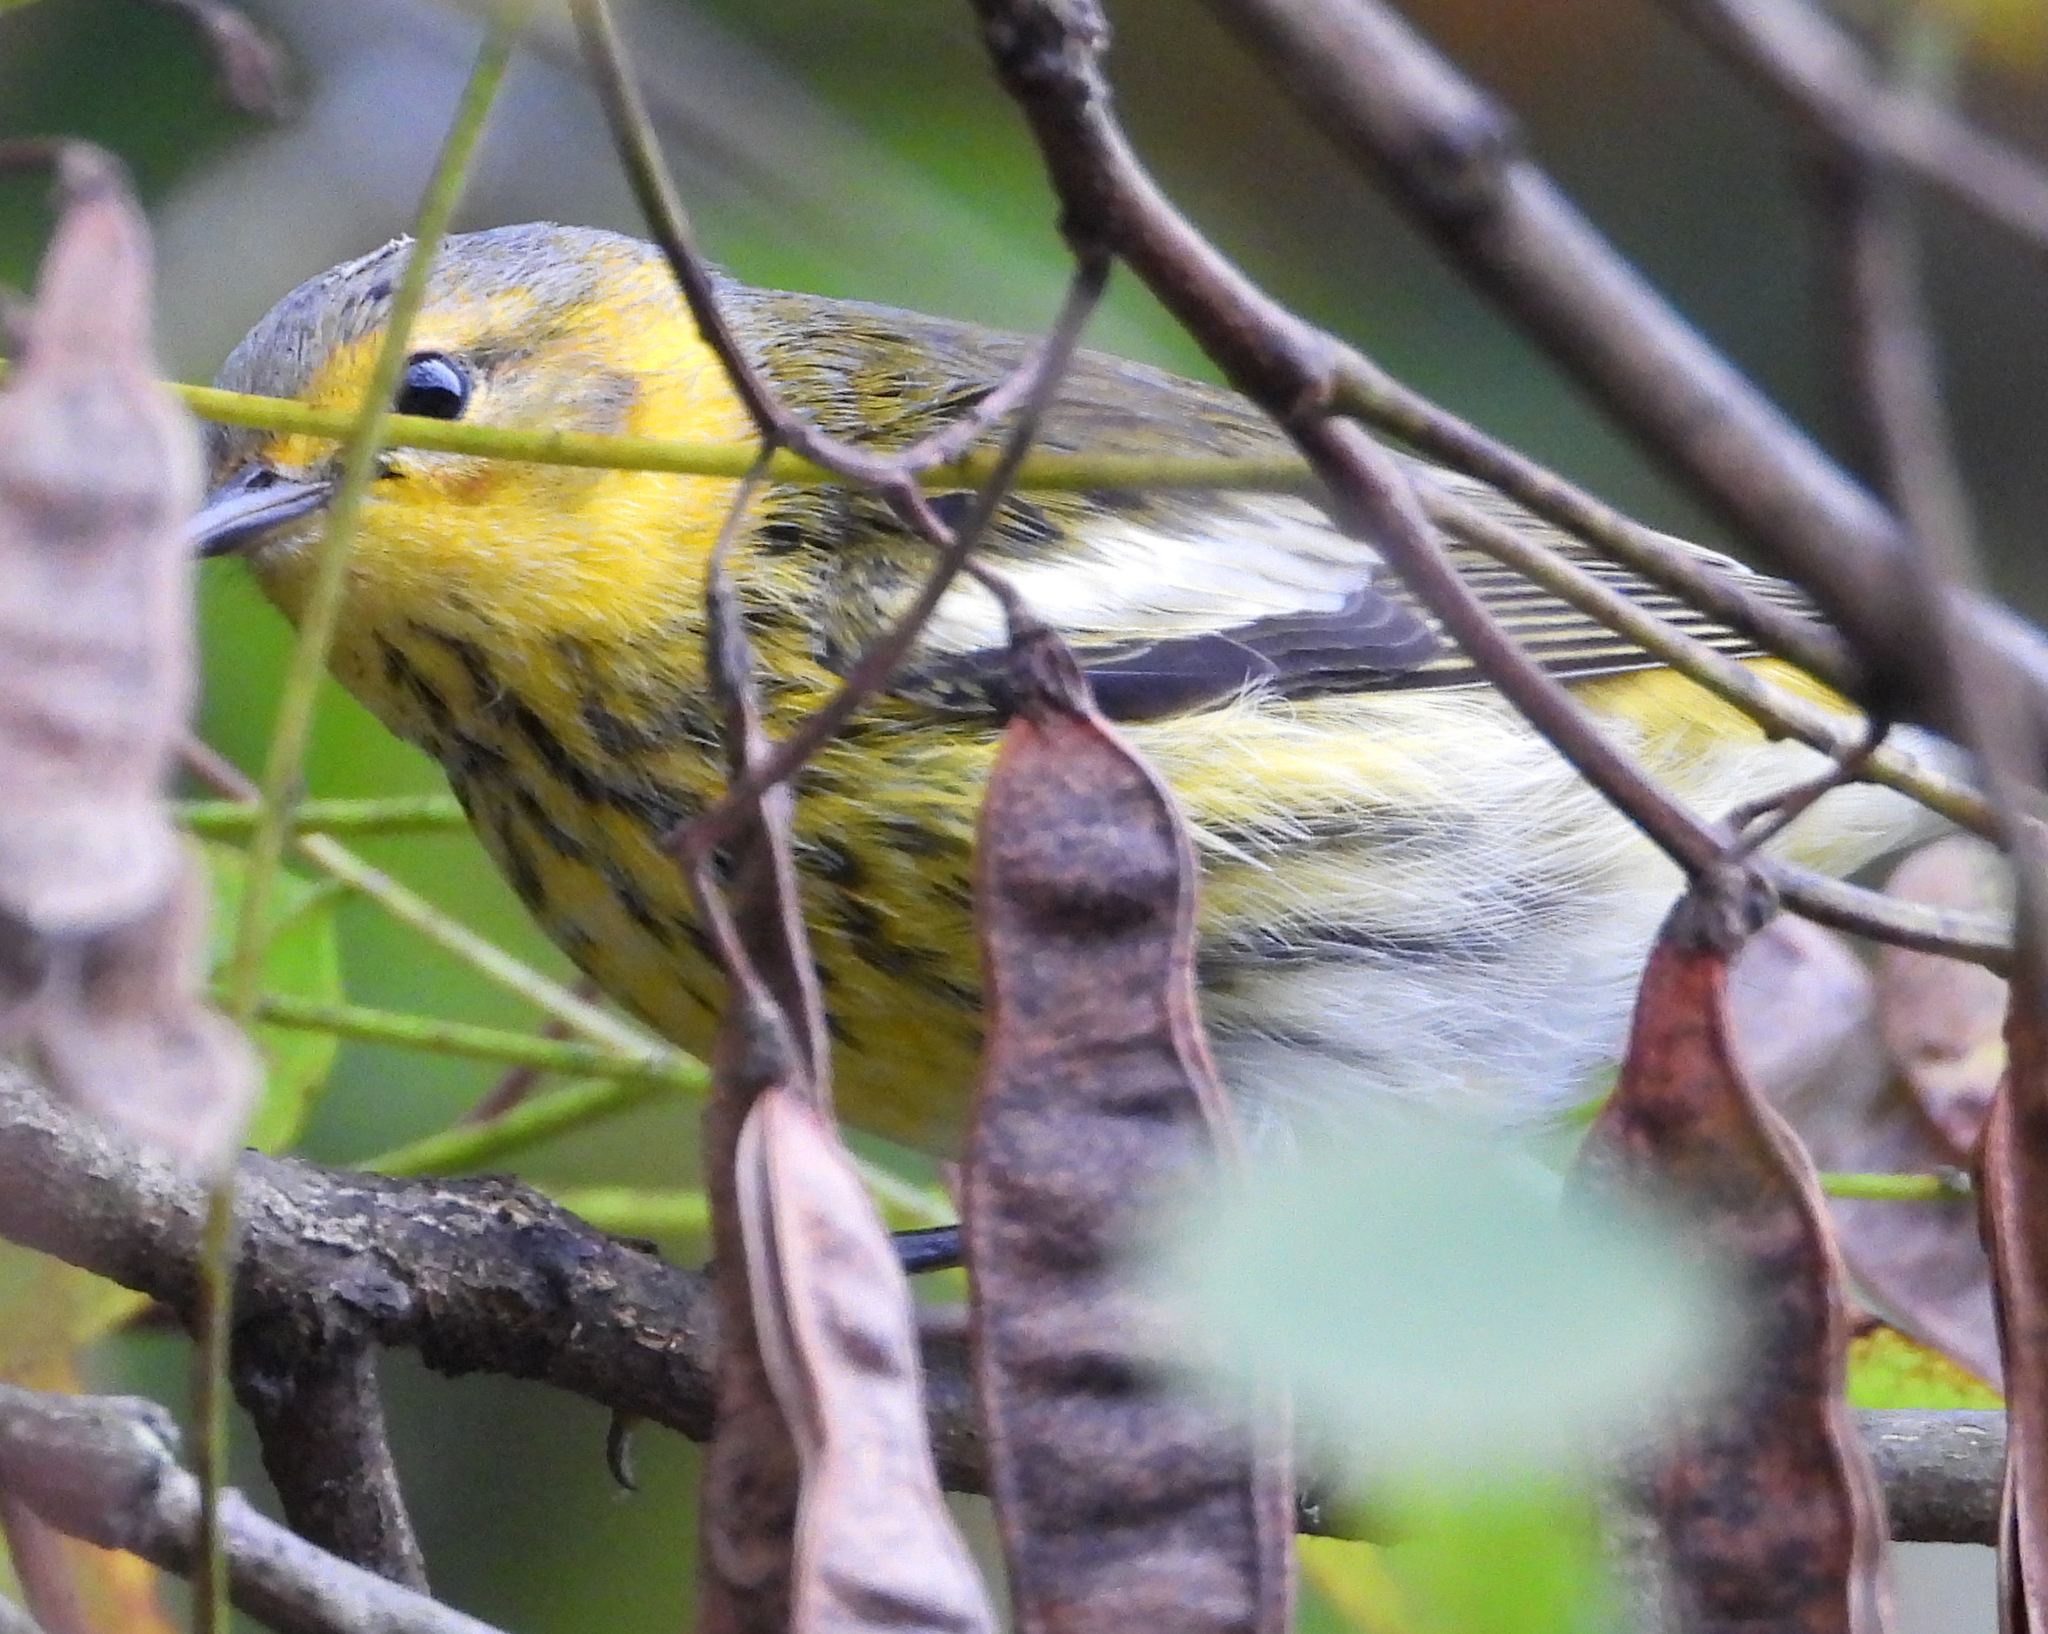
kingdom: Animalia
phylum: Chordata
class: Aves
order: Passeriformes
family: Parulidae
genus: Setophaga
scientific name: Setophaga tigrina
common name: Cape may warbler
